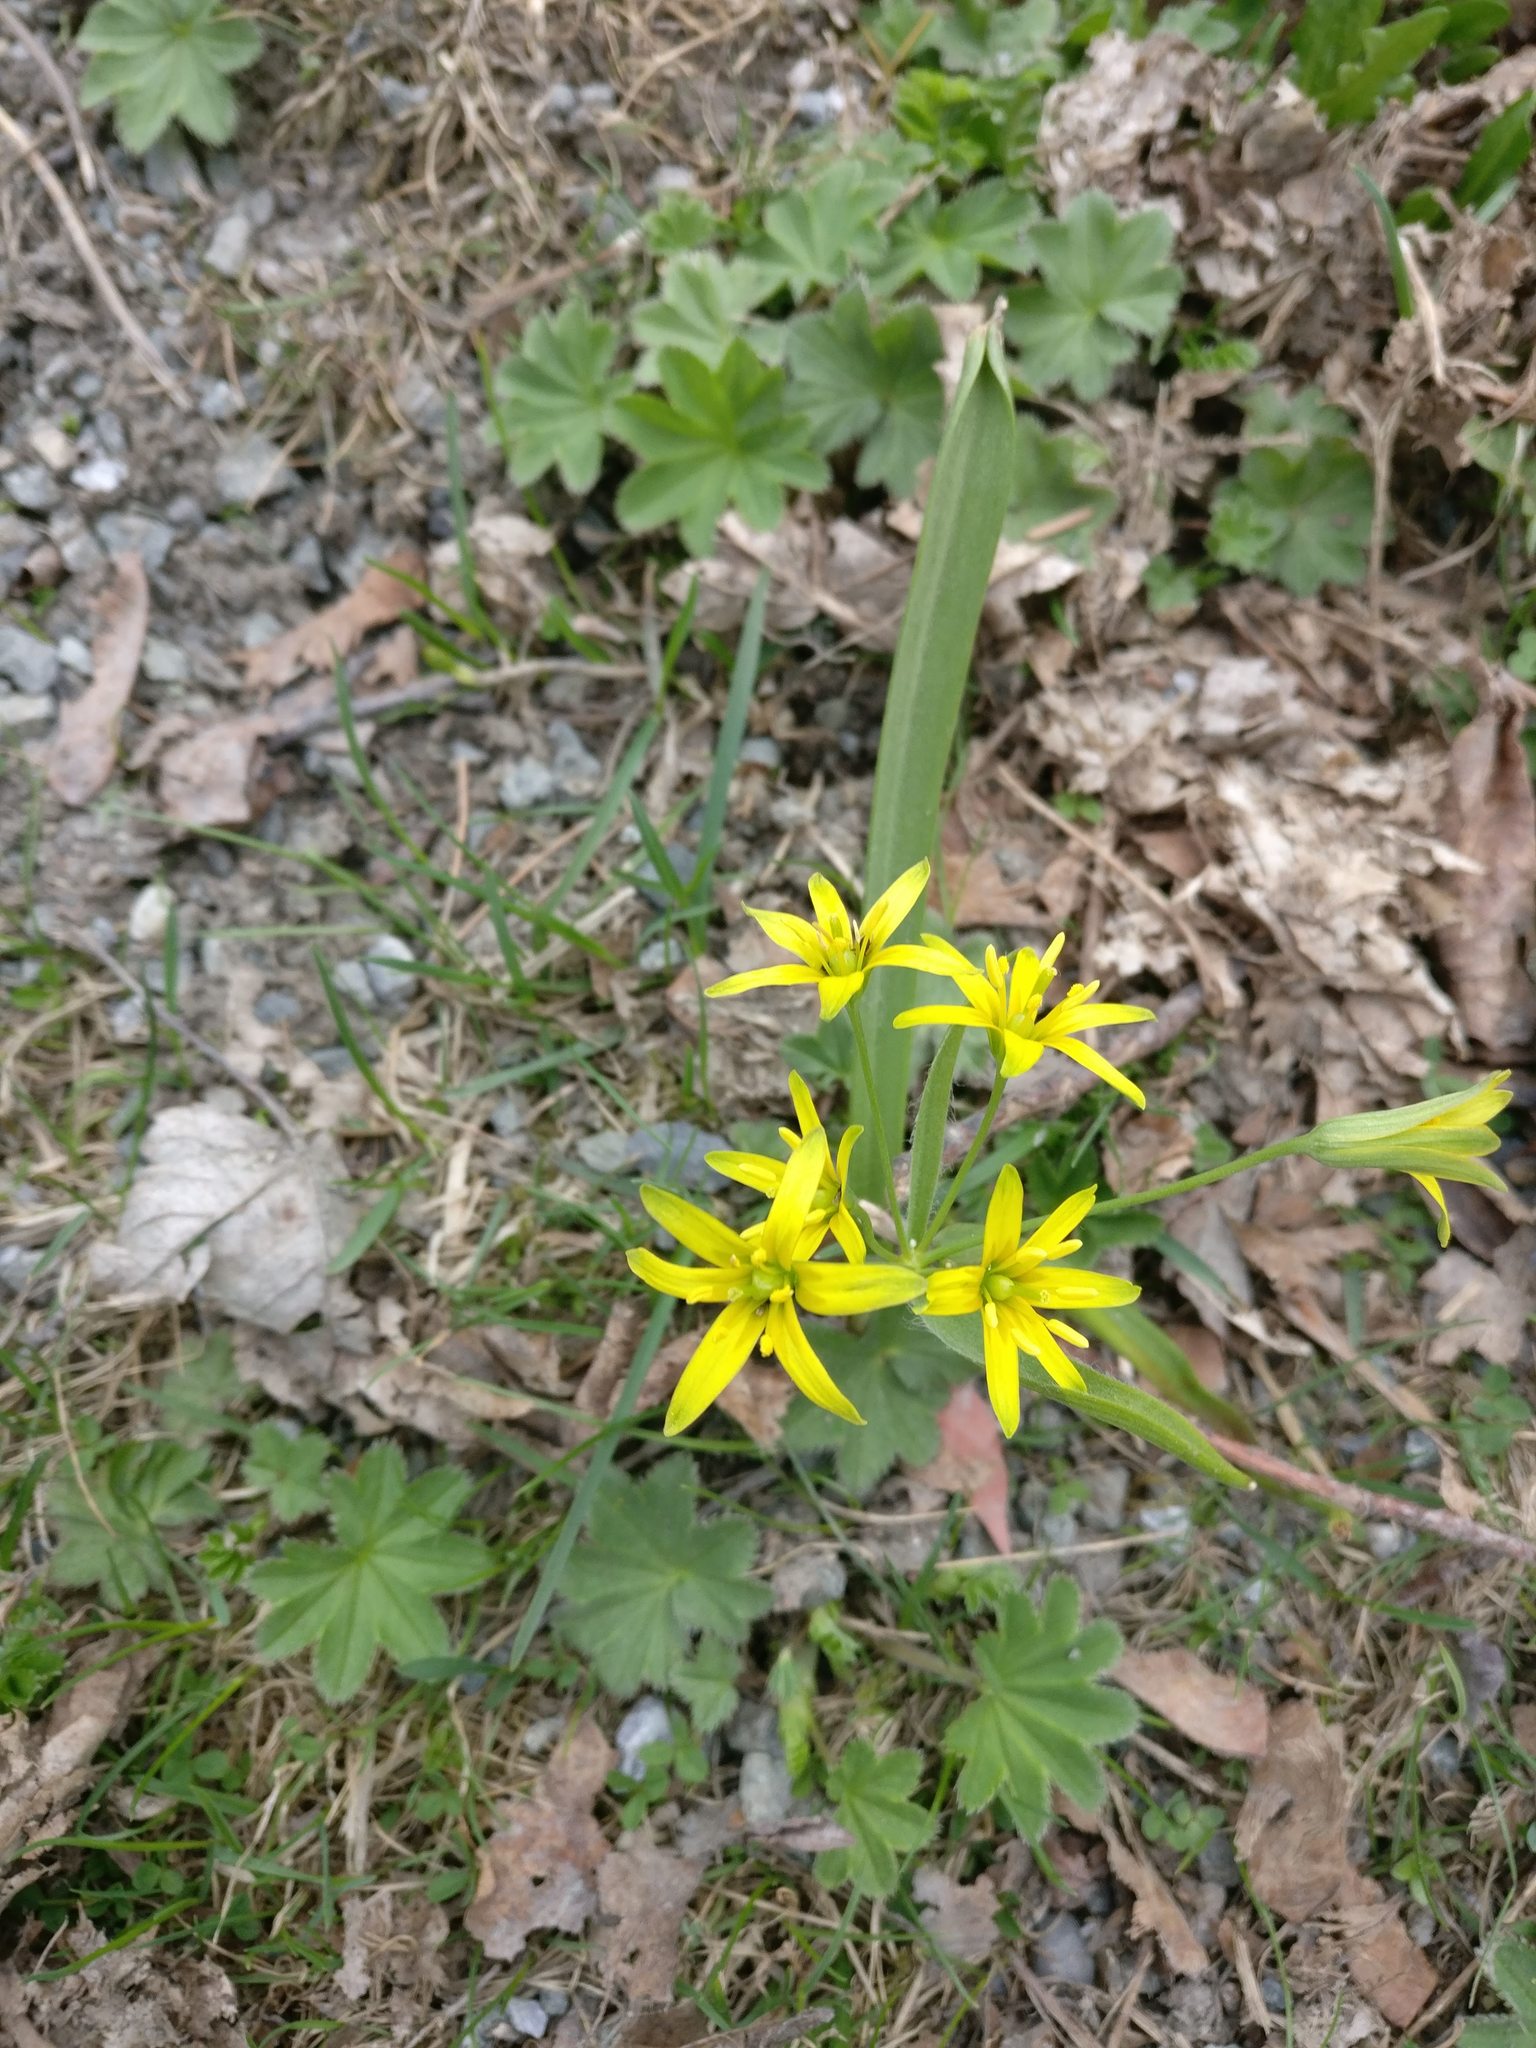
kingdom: Plantae
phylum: Tracheophyta
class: Liliopsida
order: Liliales
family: Liliaceae
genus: Gagea
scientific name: Gagea lutea
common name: Yellow star-of-bethlehem
